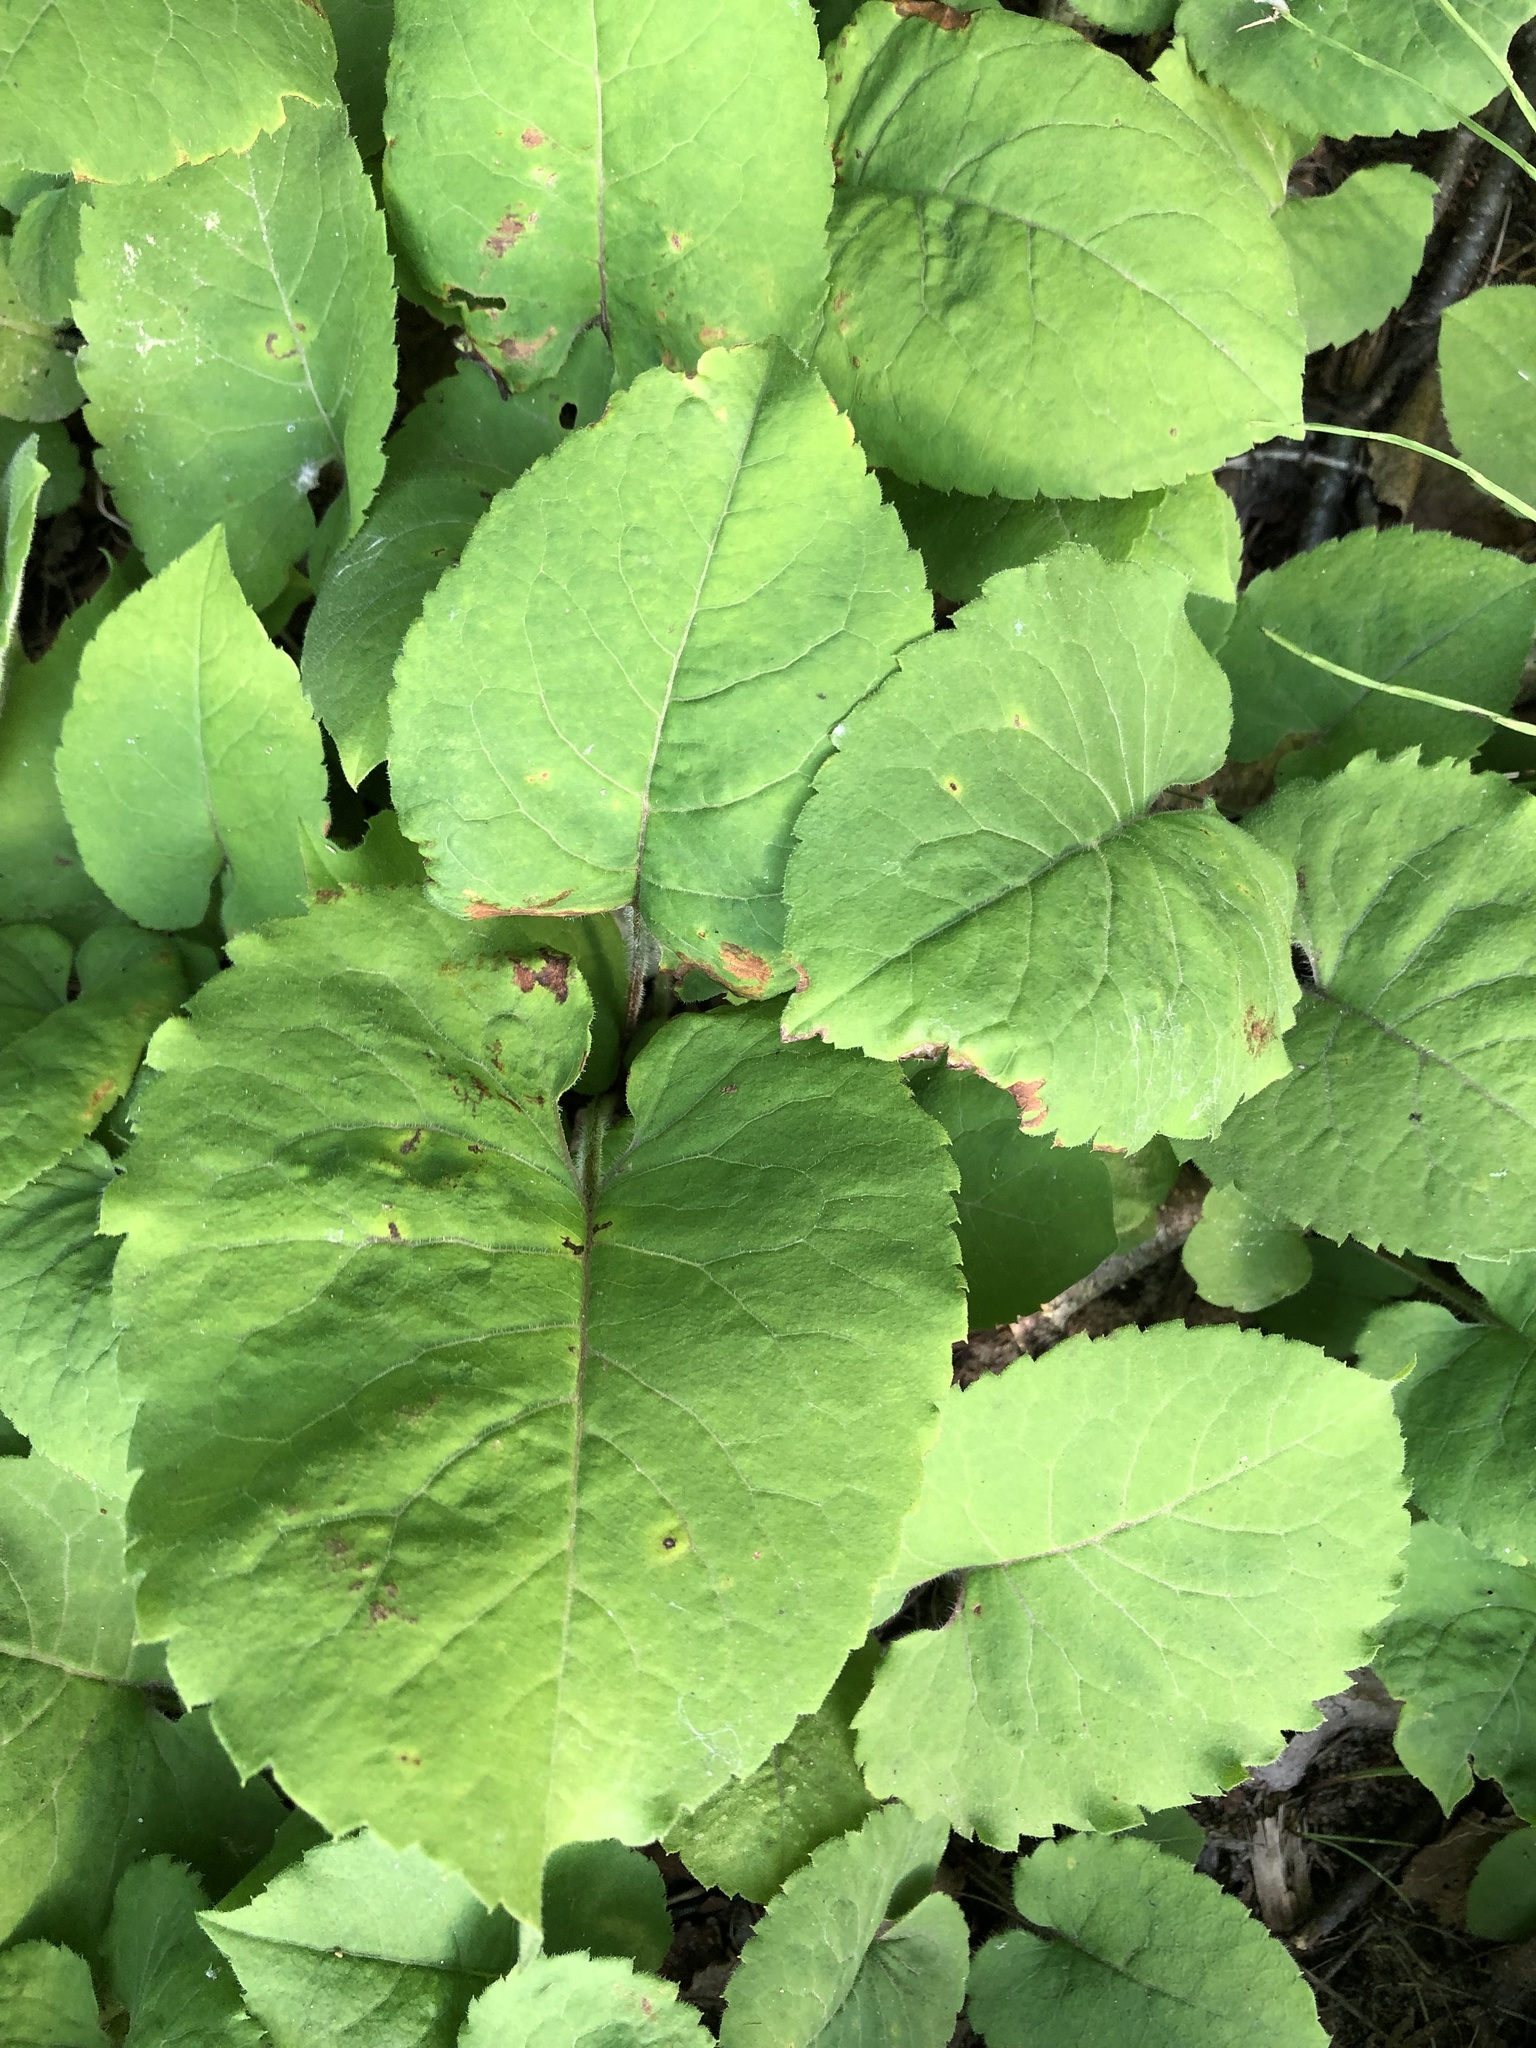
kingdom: Plantae
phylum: Tracheophyta
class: Magnoliopsida
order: Asterales
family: Asteraceae
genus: Eurybia
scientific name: Eurybia macrophylla
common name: Big-leaved aster
